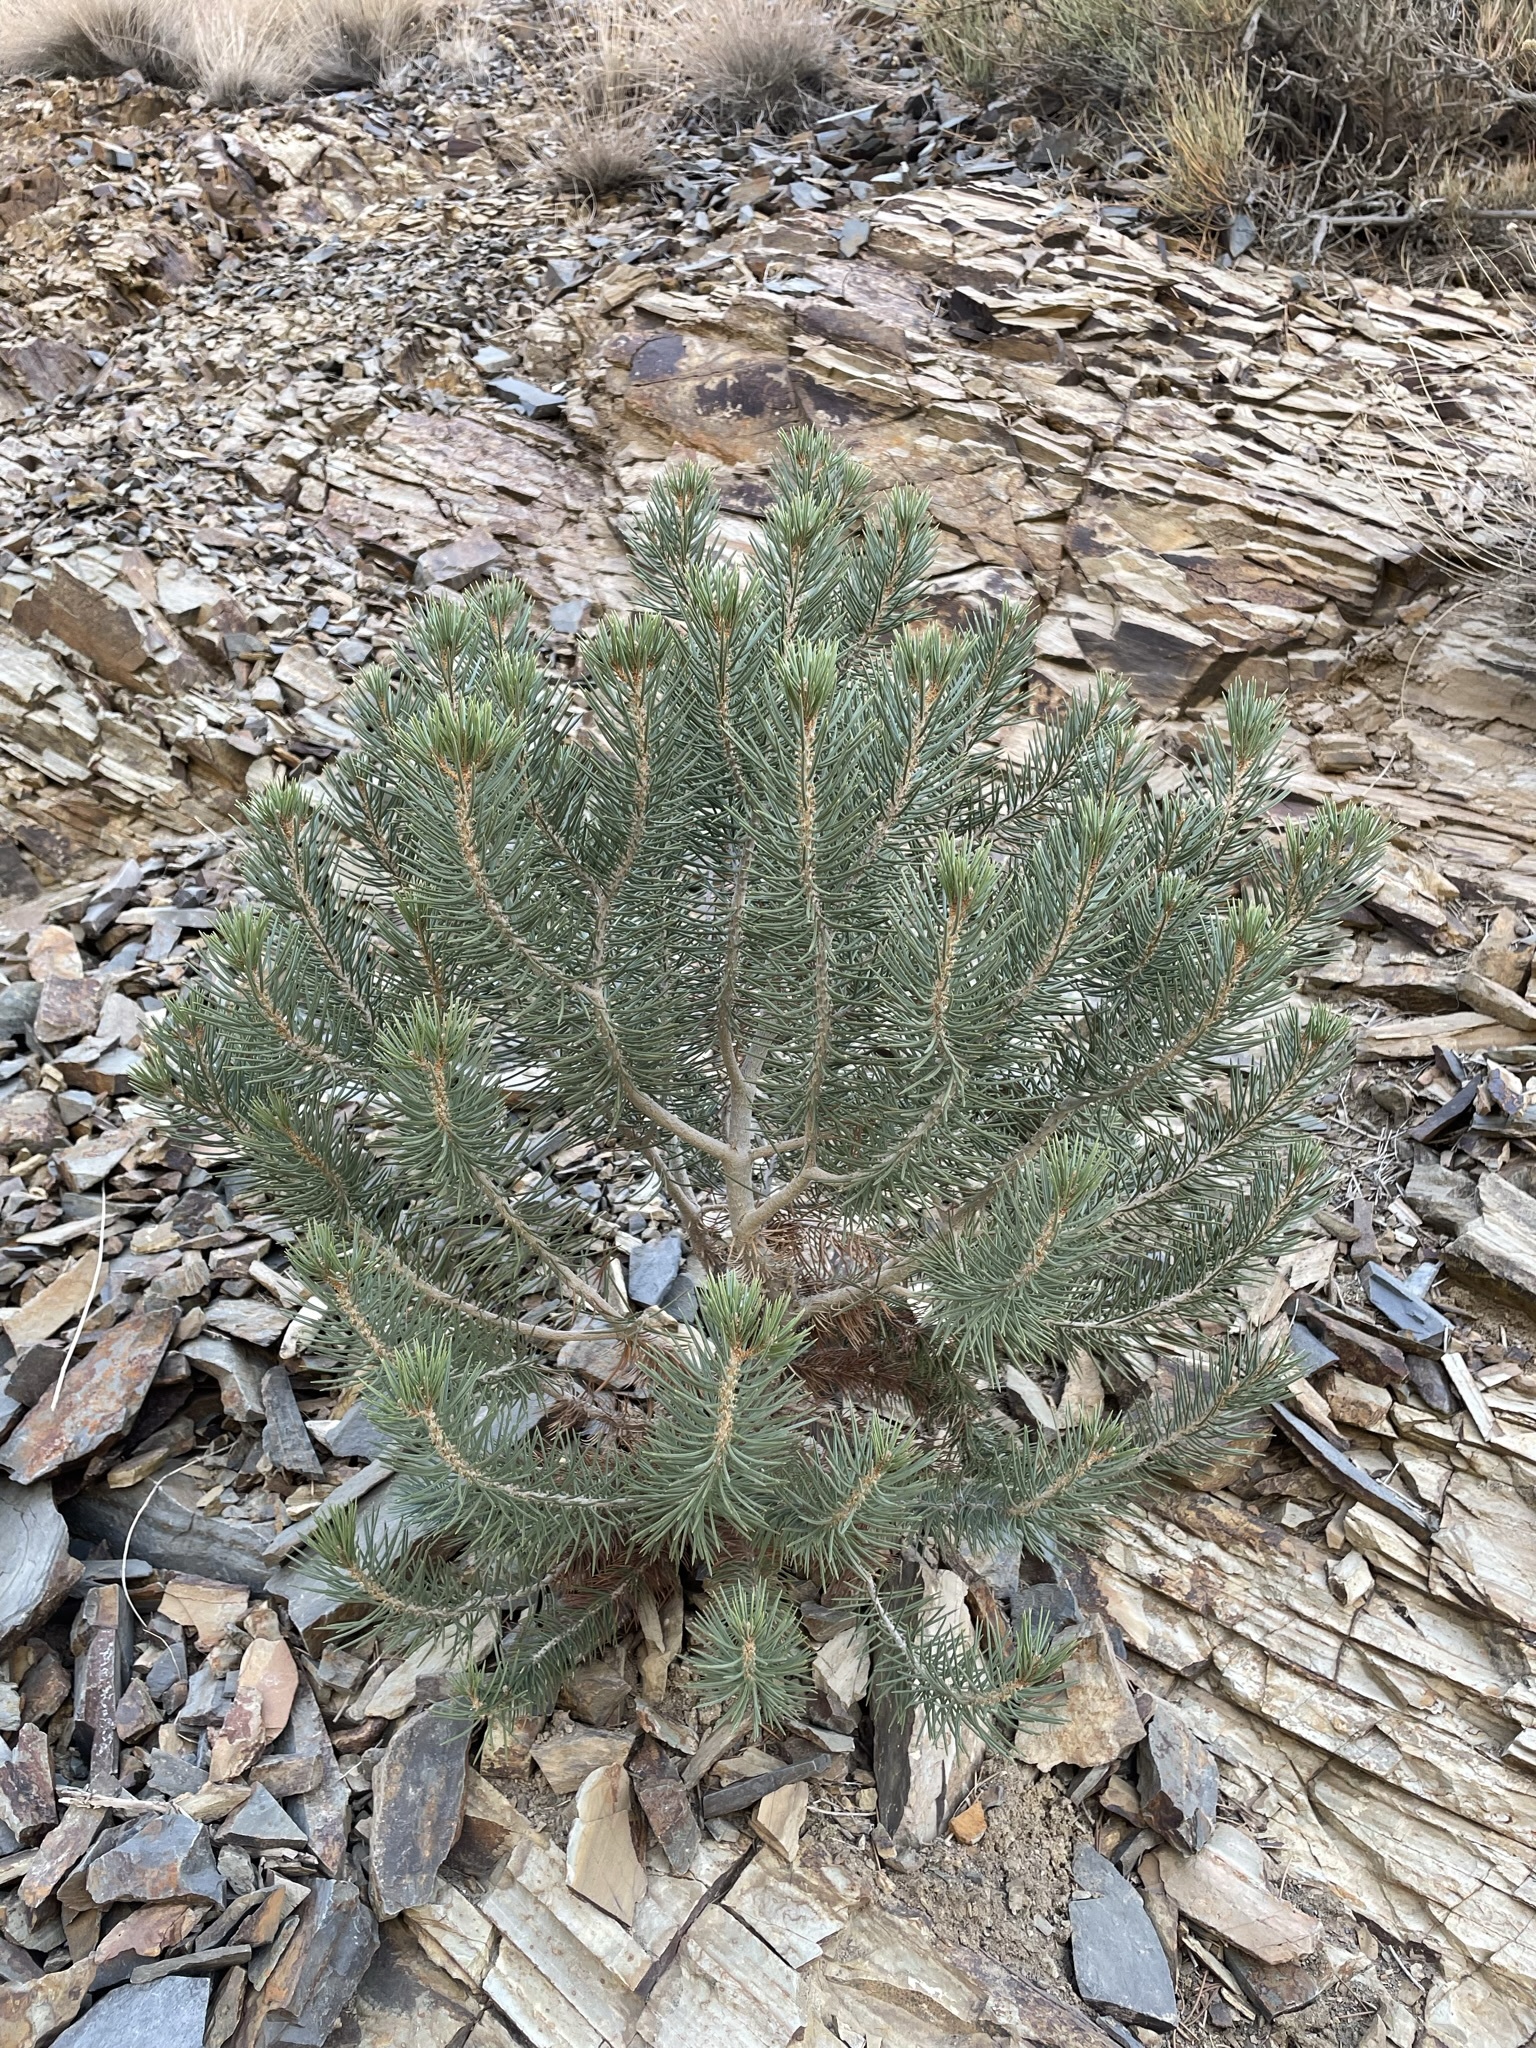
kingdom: Plantae
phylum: Tracheophyta
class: Pinopsida
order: Pinales
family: Pinaceae
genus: Pinus
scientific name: Pinus monophylla
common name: One-leaved nut pine
